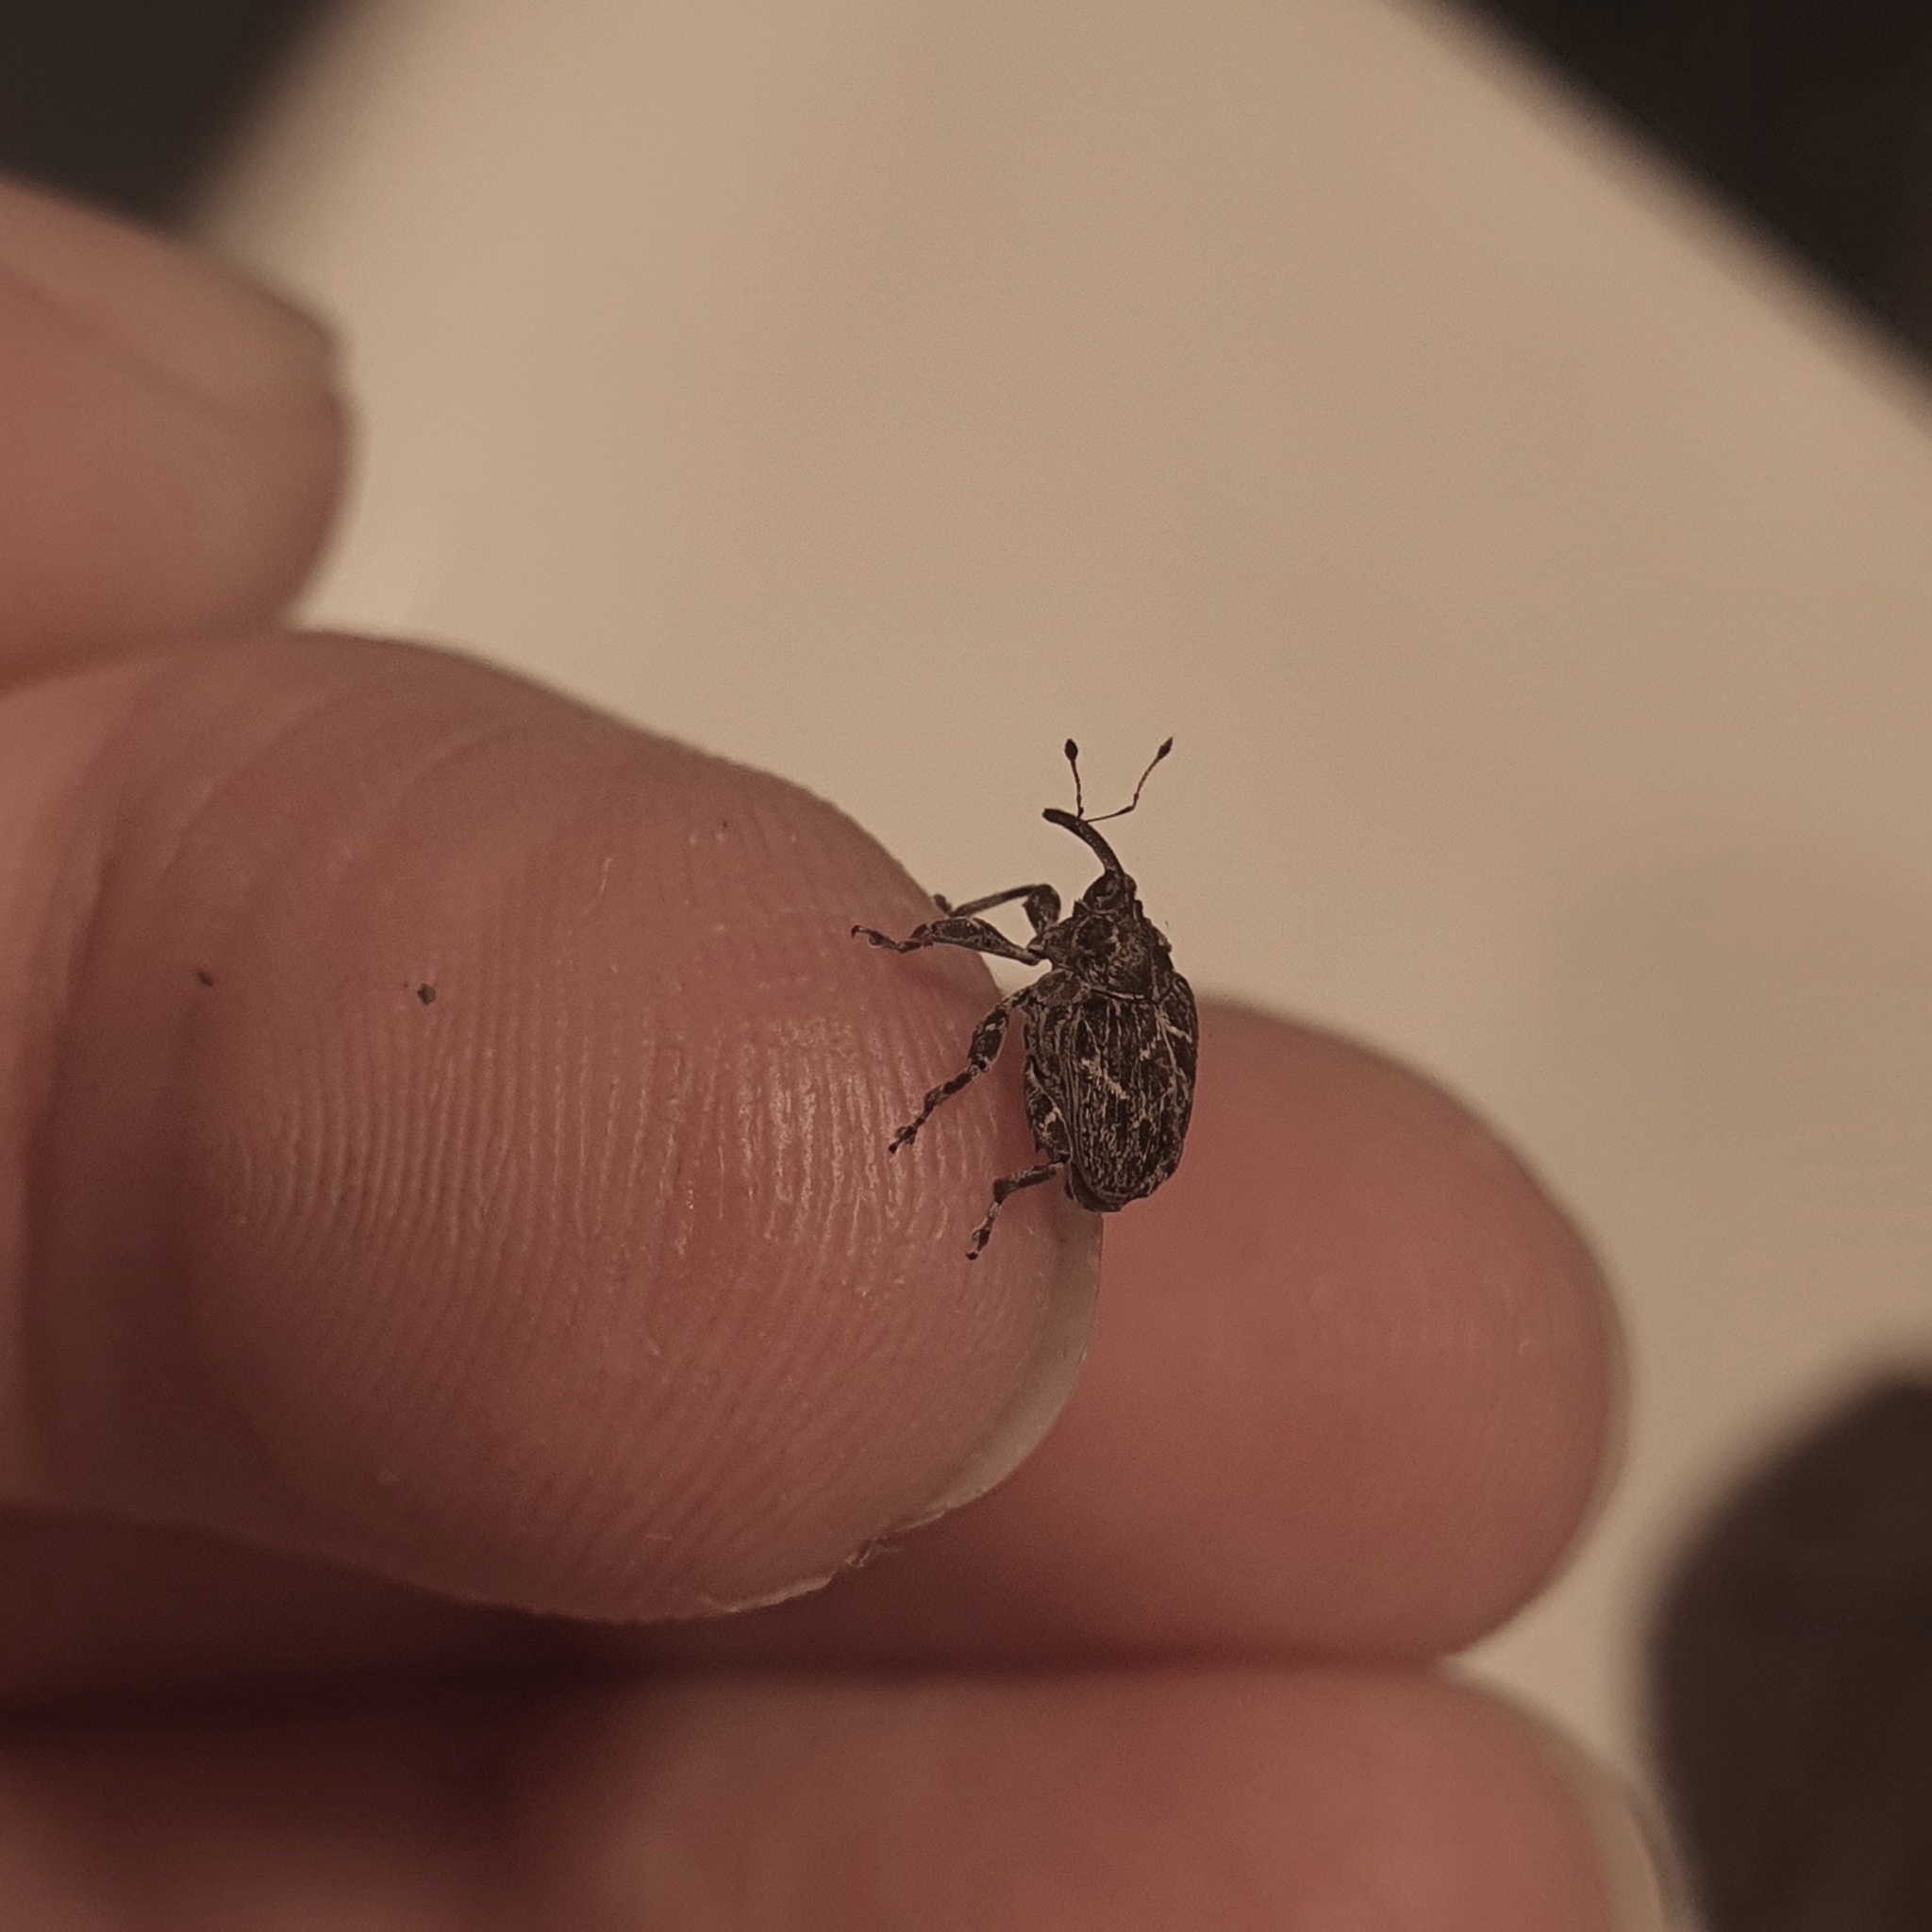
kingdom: Animalia
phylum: Arthropoda
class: Insecta
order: Coleoptera
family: Curculionidae
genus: Mogulones
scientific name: Mogulones geographicus
